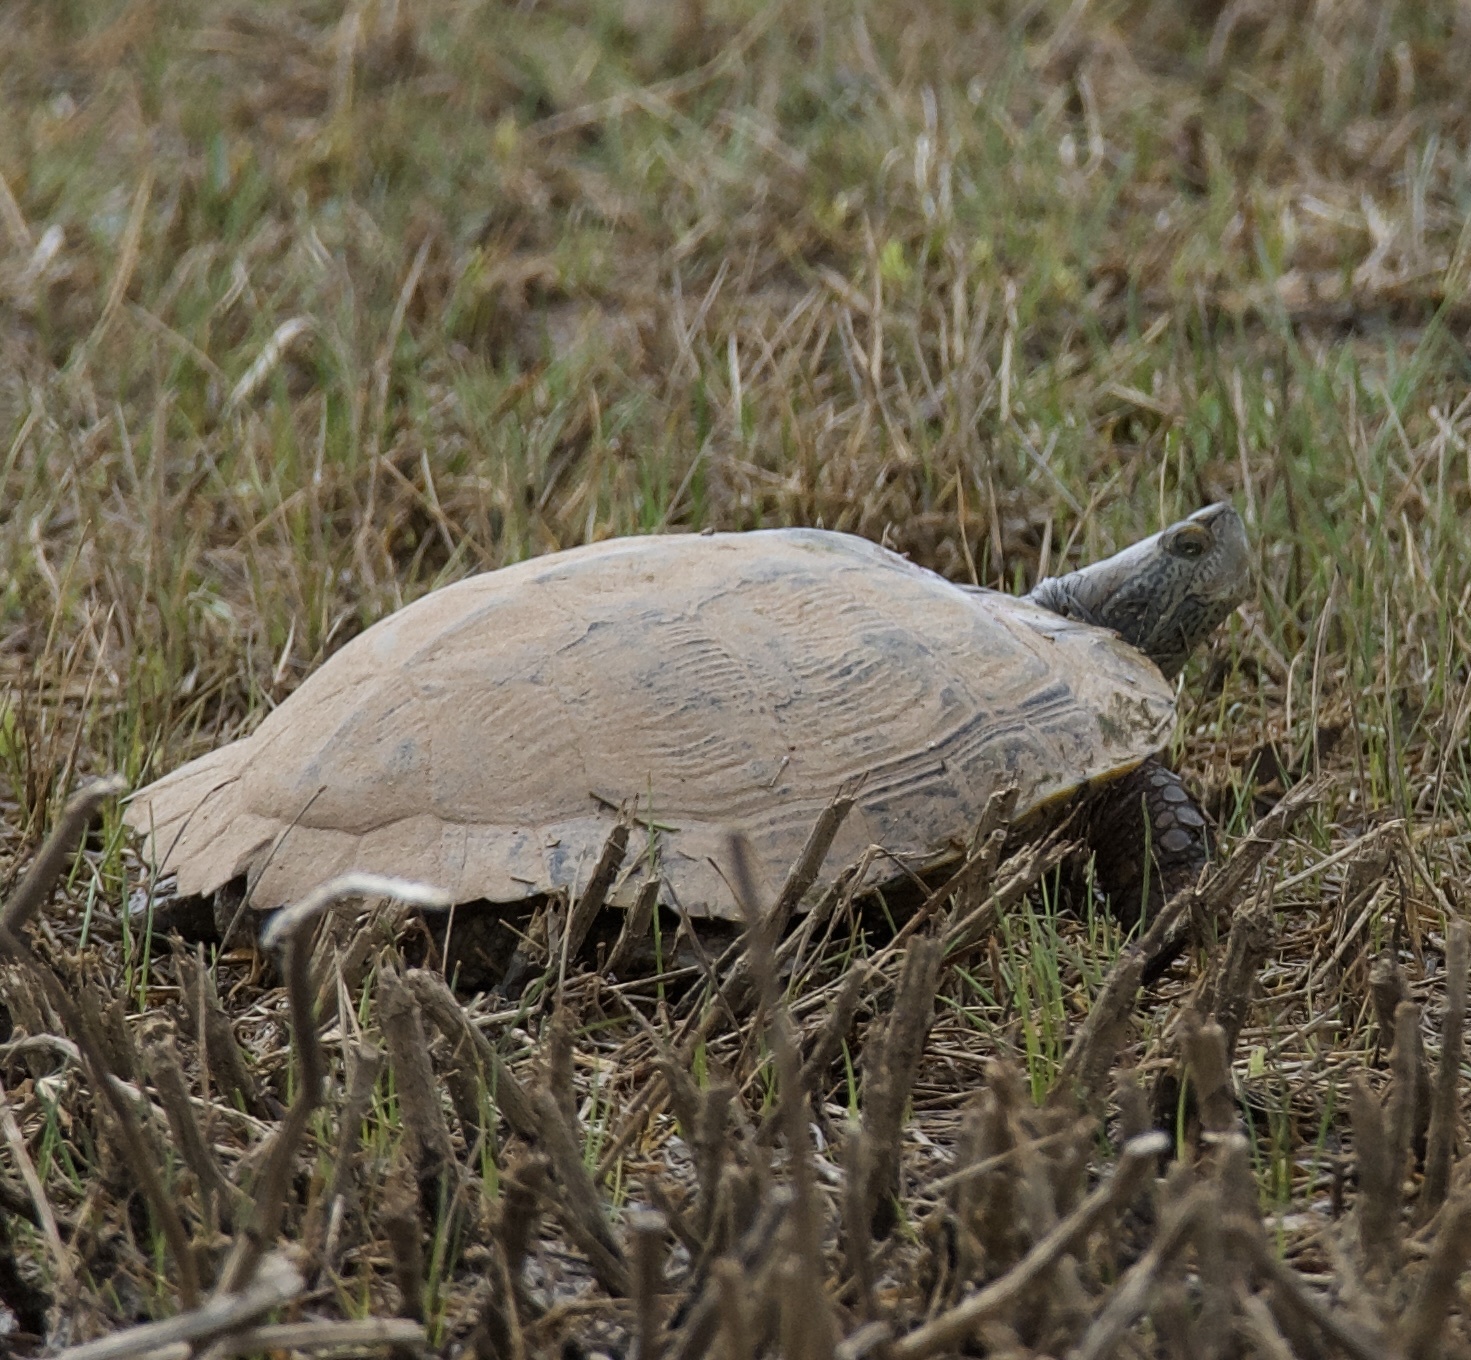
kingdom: Animalia
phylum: Chordata
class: Testudines
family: Emydidae
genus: Trachemys
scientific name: Trachemys scripta
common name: Slider
